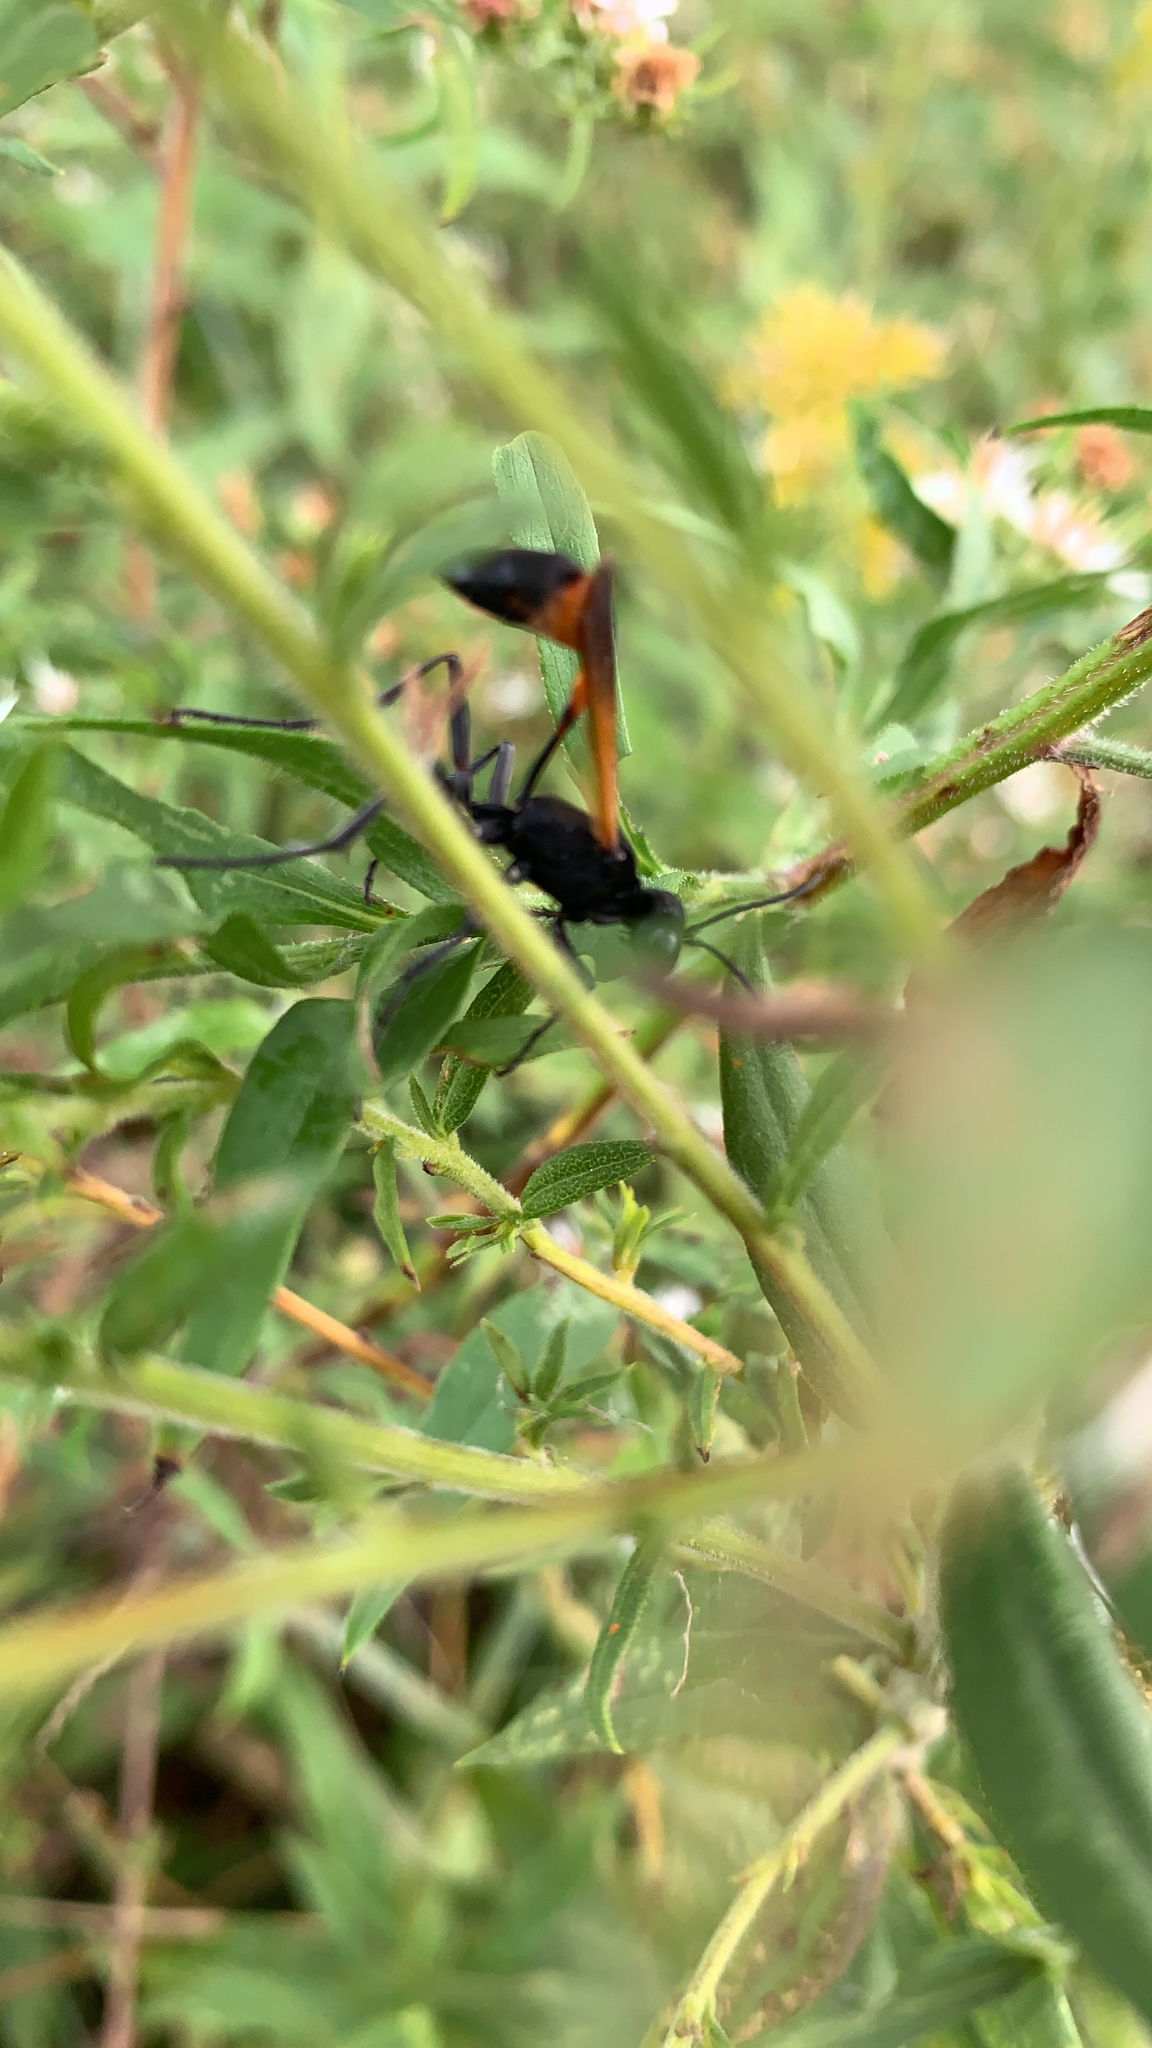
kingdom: Animalia
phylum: Arthropoda
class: Insecta
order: Hymenoptera
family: Sphecidae
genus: Ammophila
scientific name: Ammophila pictipennis
